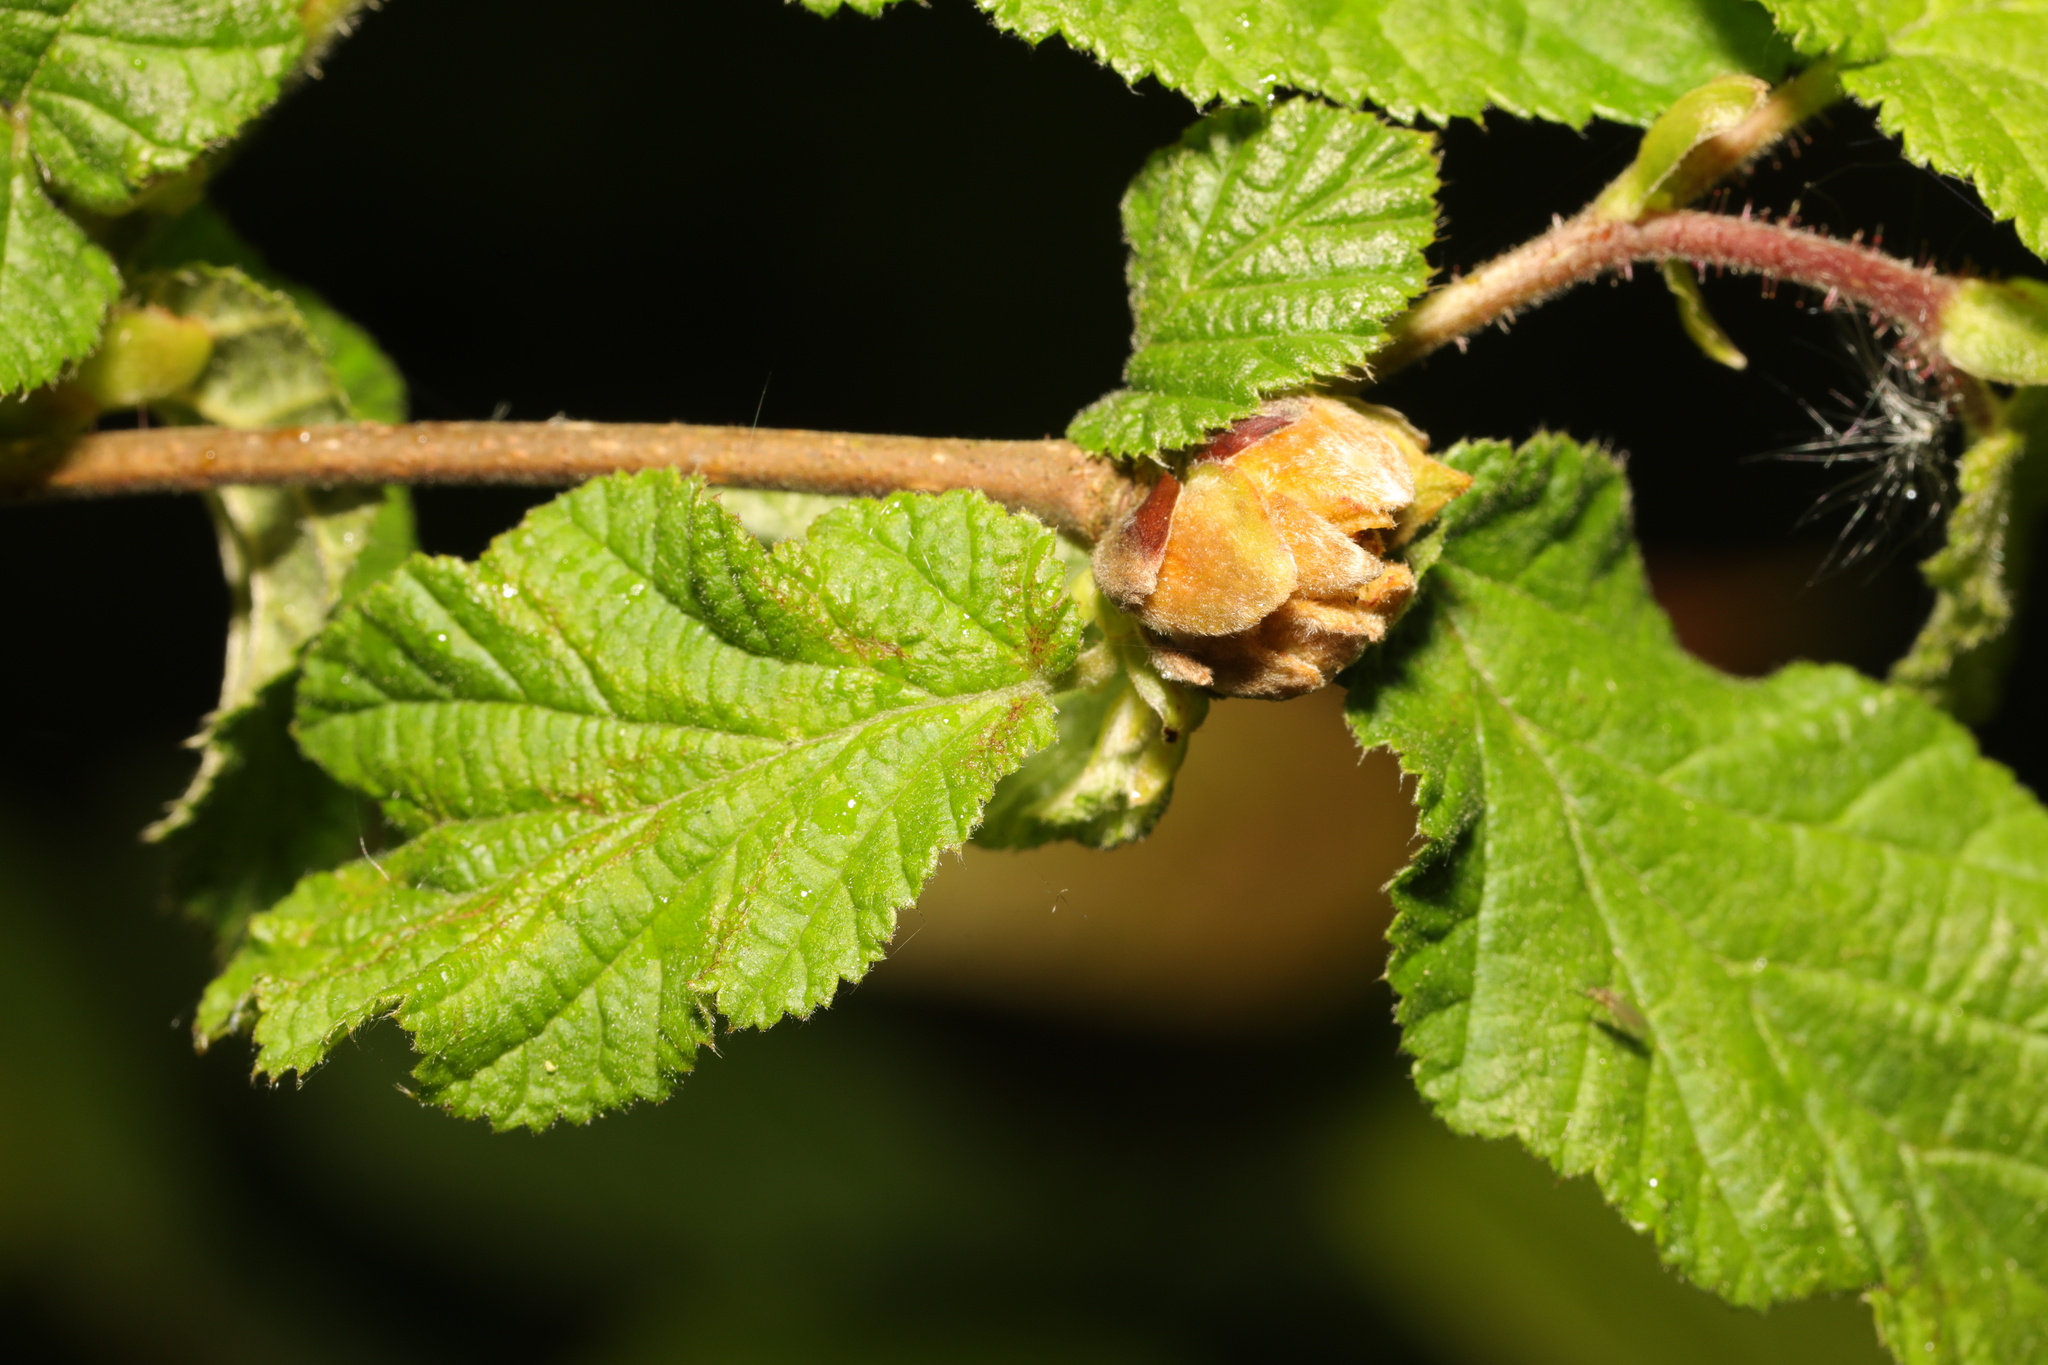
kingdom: Animalia
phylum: Arthropoda
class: Arachnida
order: Trombidiformes
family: Phytoptidae
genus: Phytoptus
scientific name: Phytoptus avellanae
